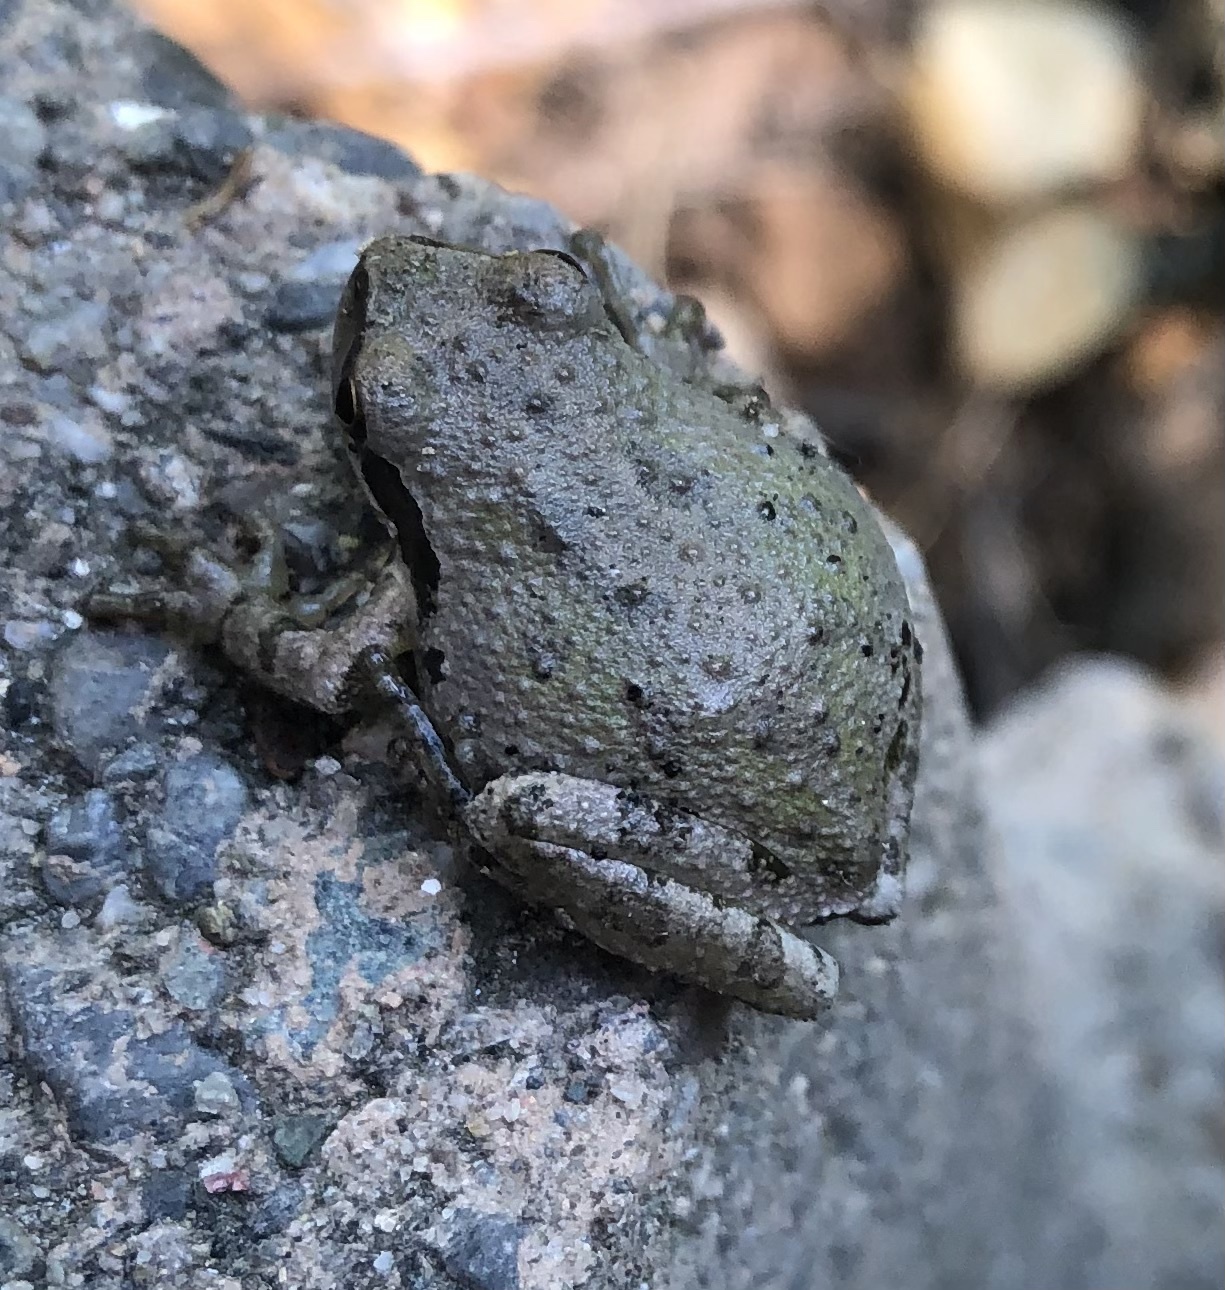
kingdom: Animalia
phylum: Chordata
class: Amphibia
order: Anura
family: Hylidae
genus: Pseudacris
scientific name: Pseudacris regilla
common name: Pacific chorus frog
